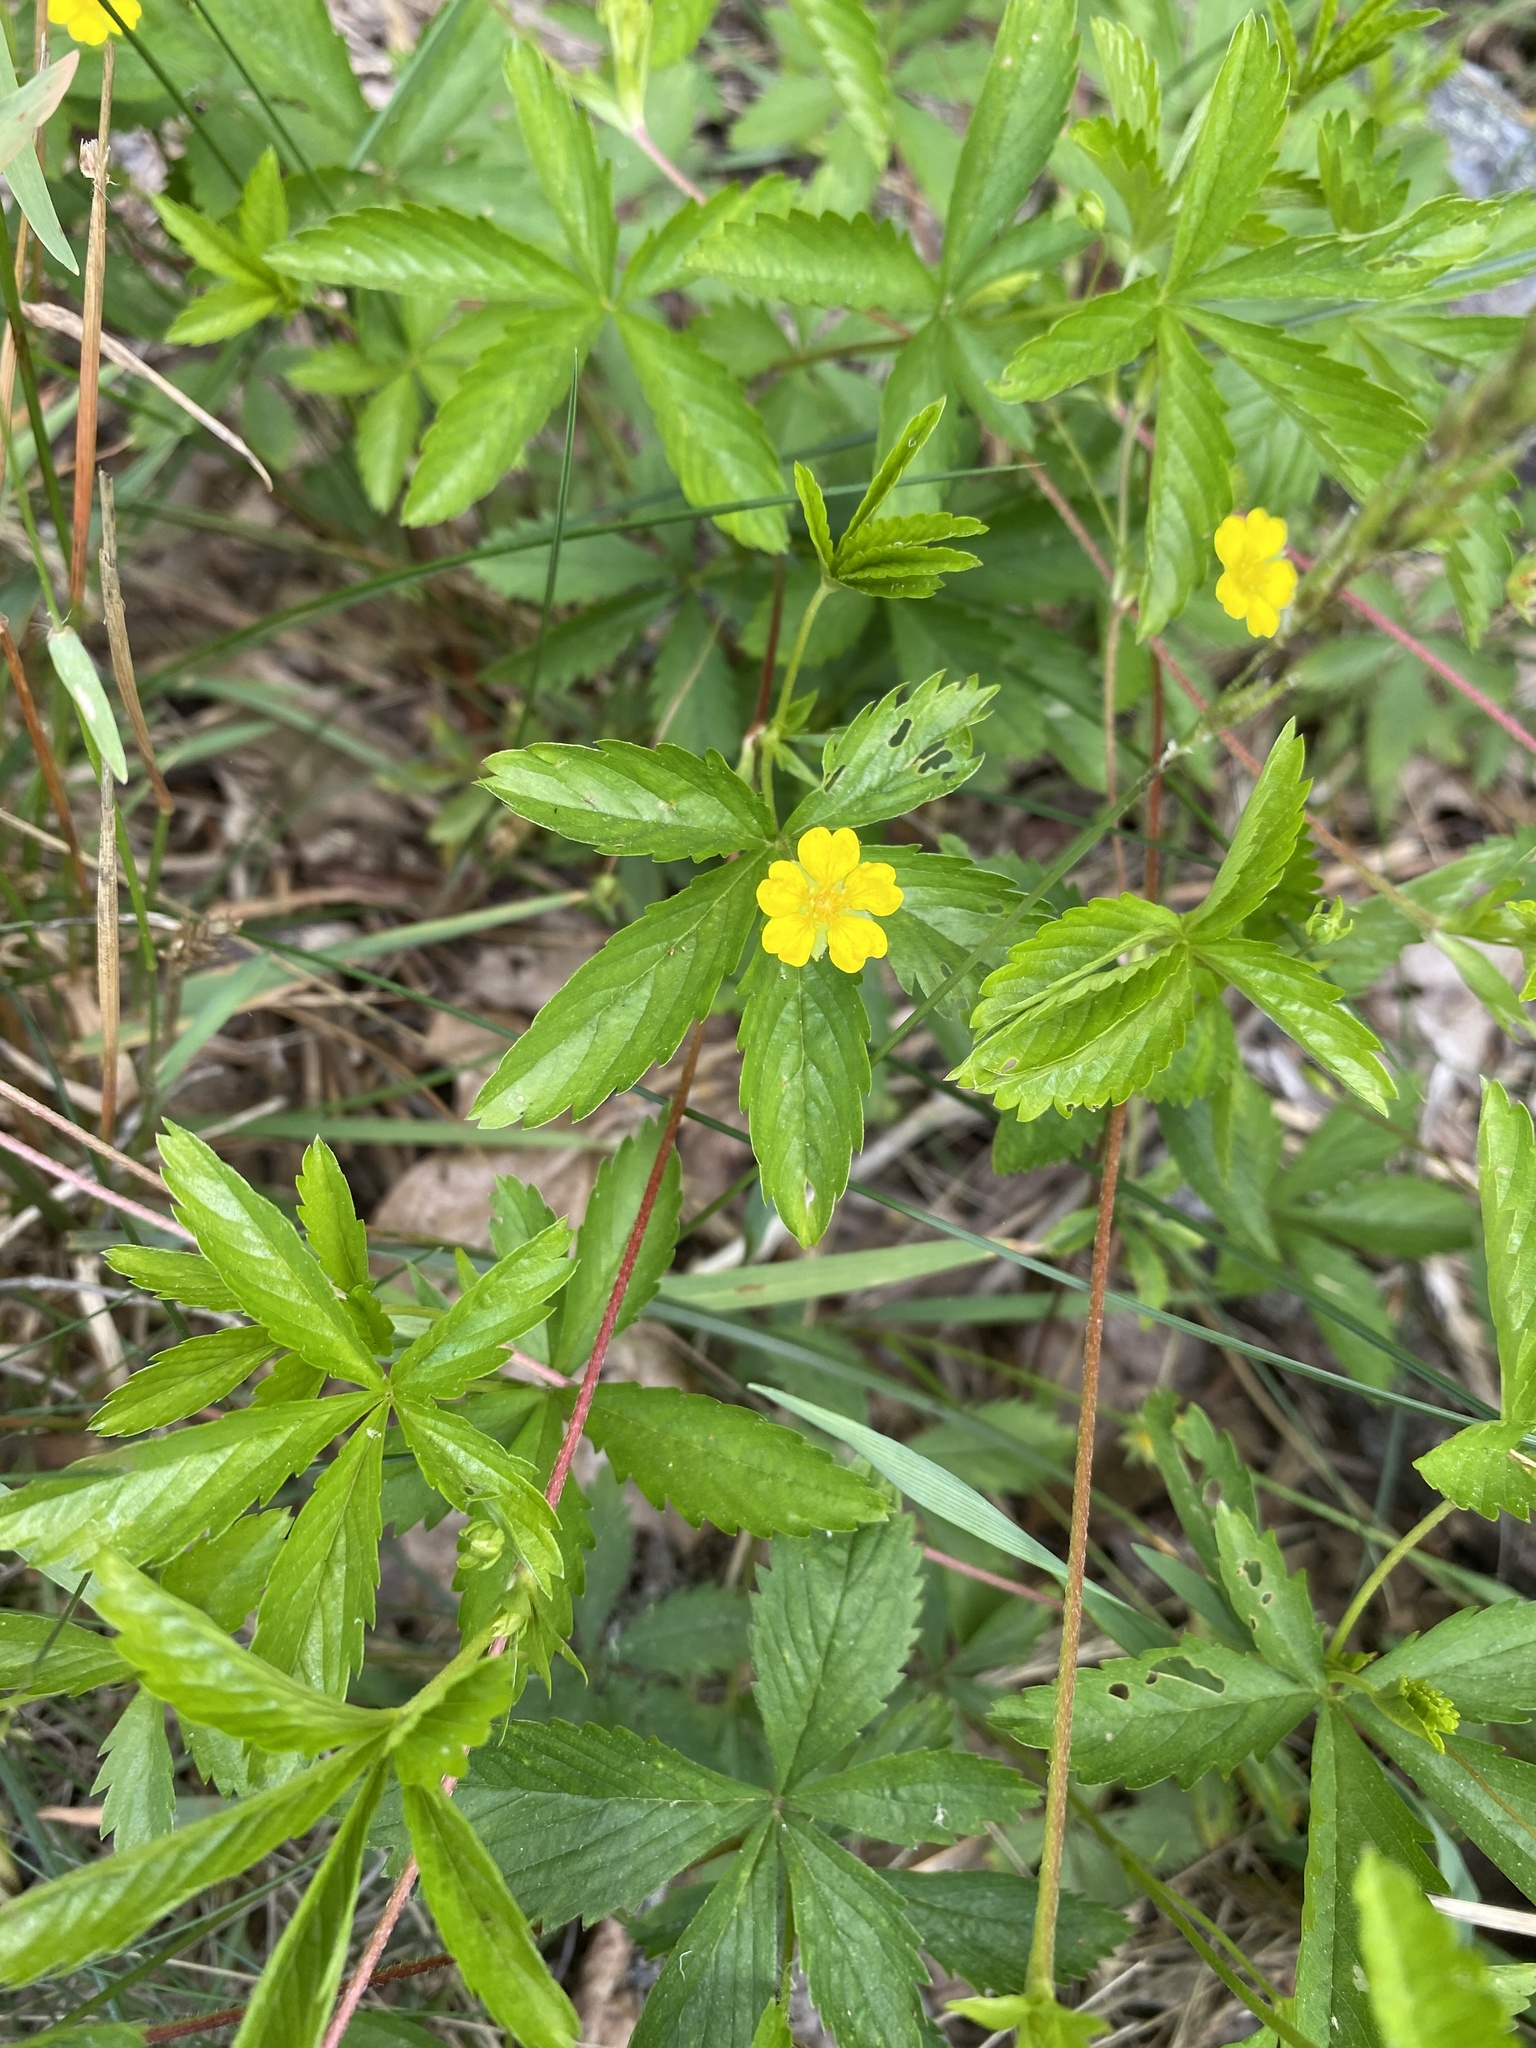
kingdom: Plantae
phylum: Tracheophyta
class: Magnoliopsida
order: Rosales
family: Rosaceae
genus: Potentilla
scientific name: Potentilla simplex
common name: Old field cinquefoil
